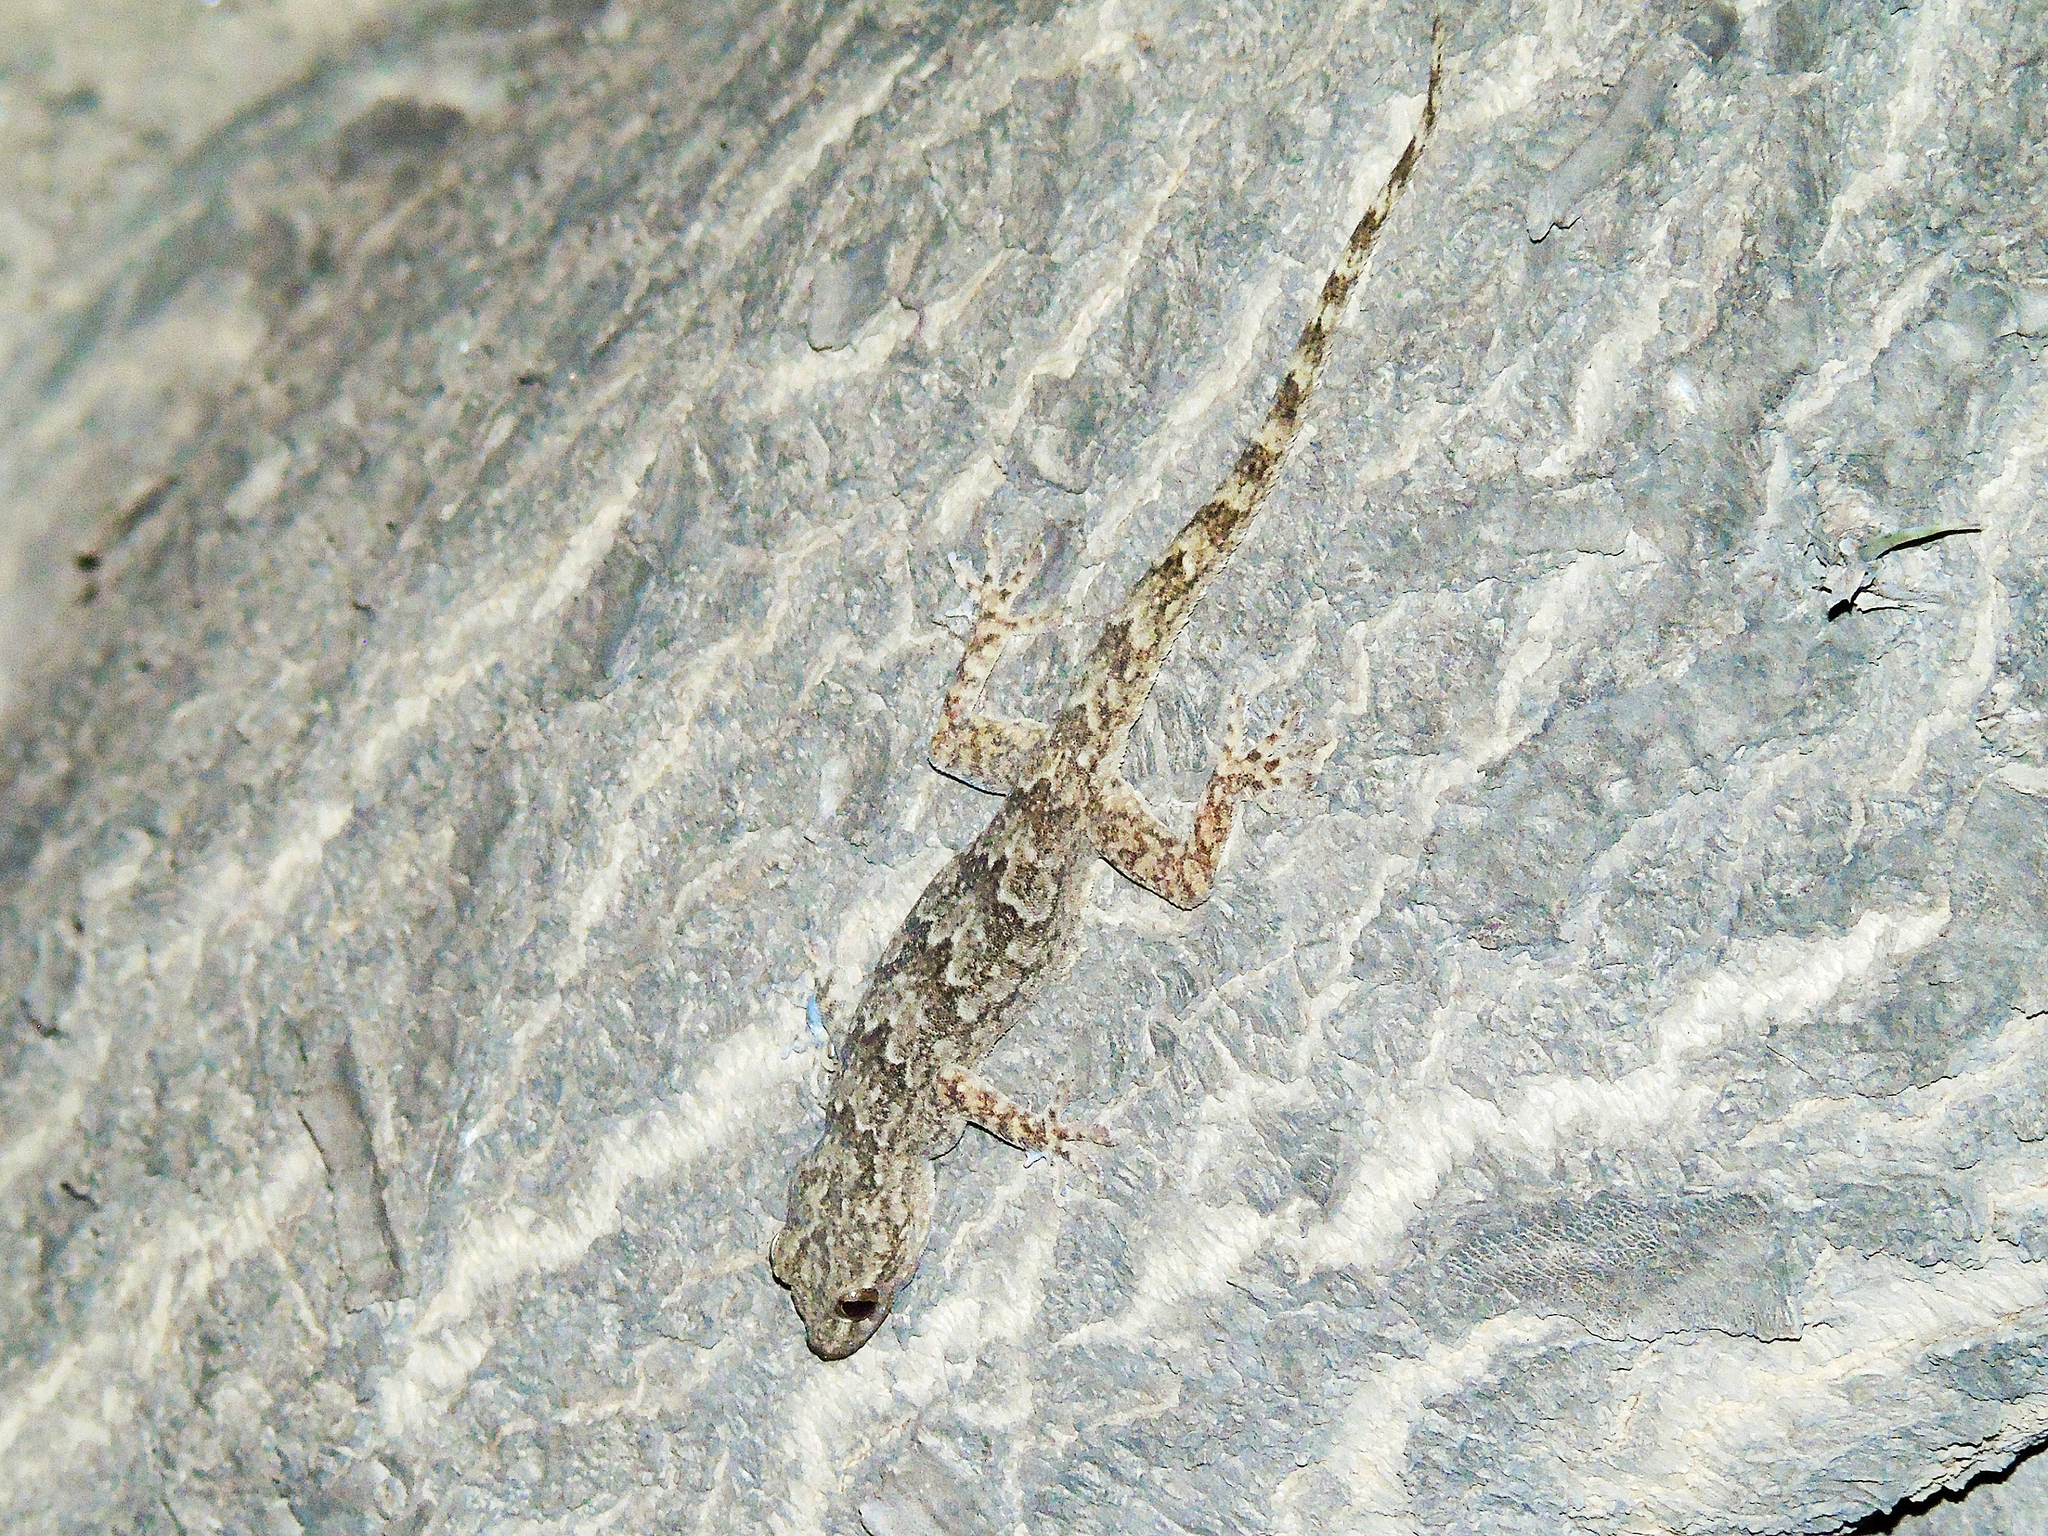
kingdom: Animalia
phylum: Chordata
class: Squamata
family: Gekkonidae
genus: Hemidactylus
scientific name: Hemidactylus flaviviridis
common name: Northern house gecko
